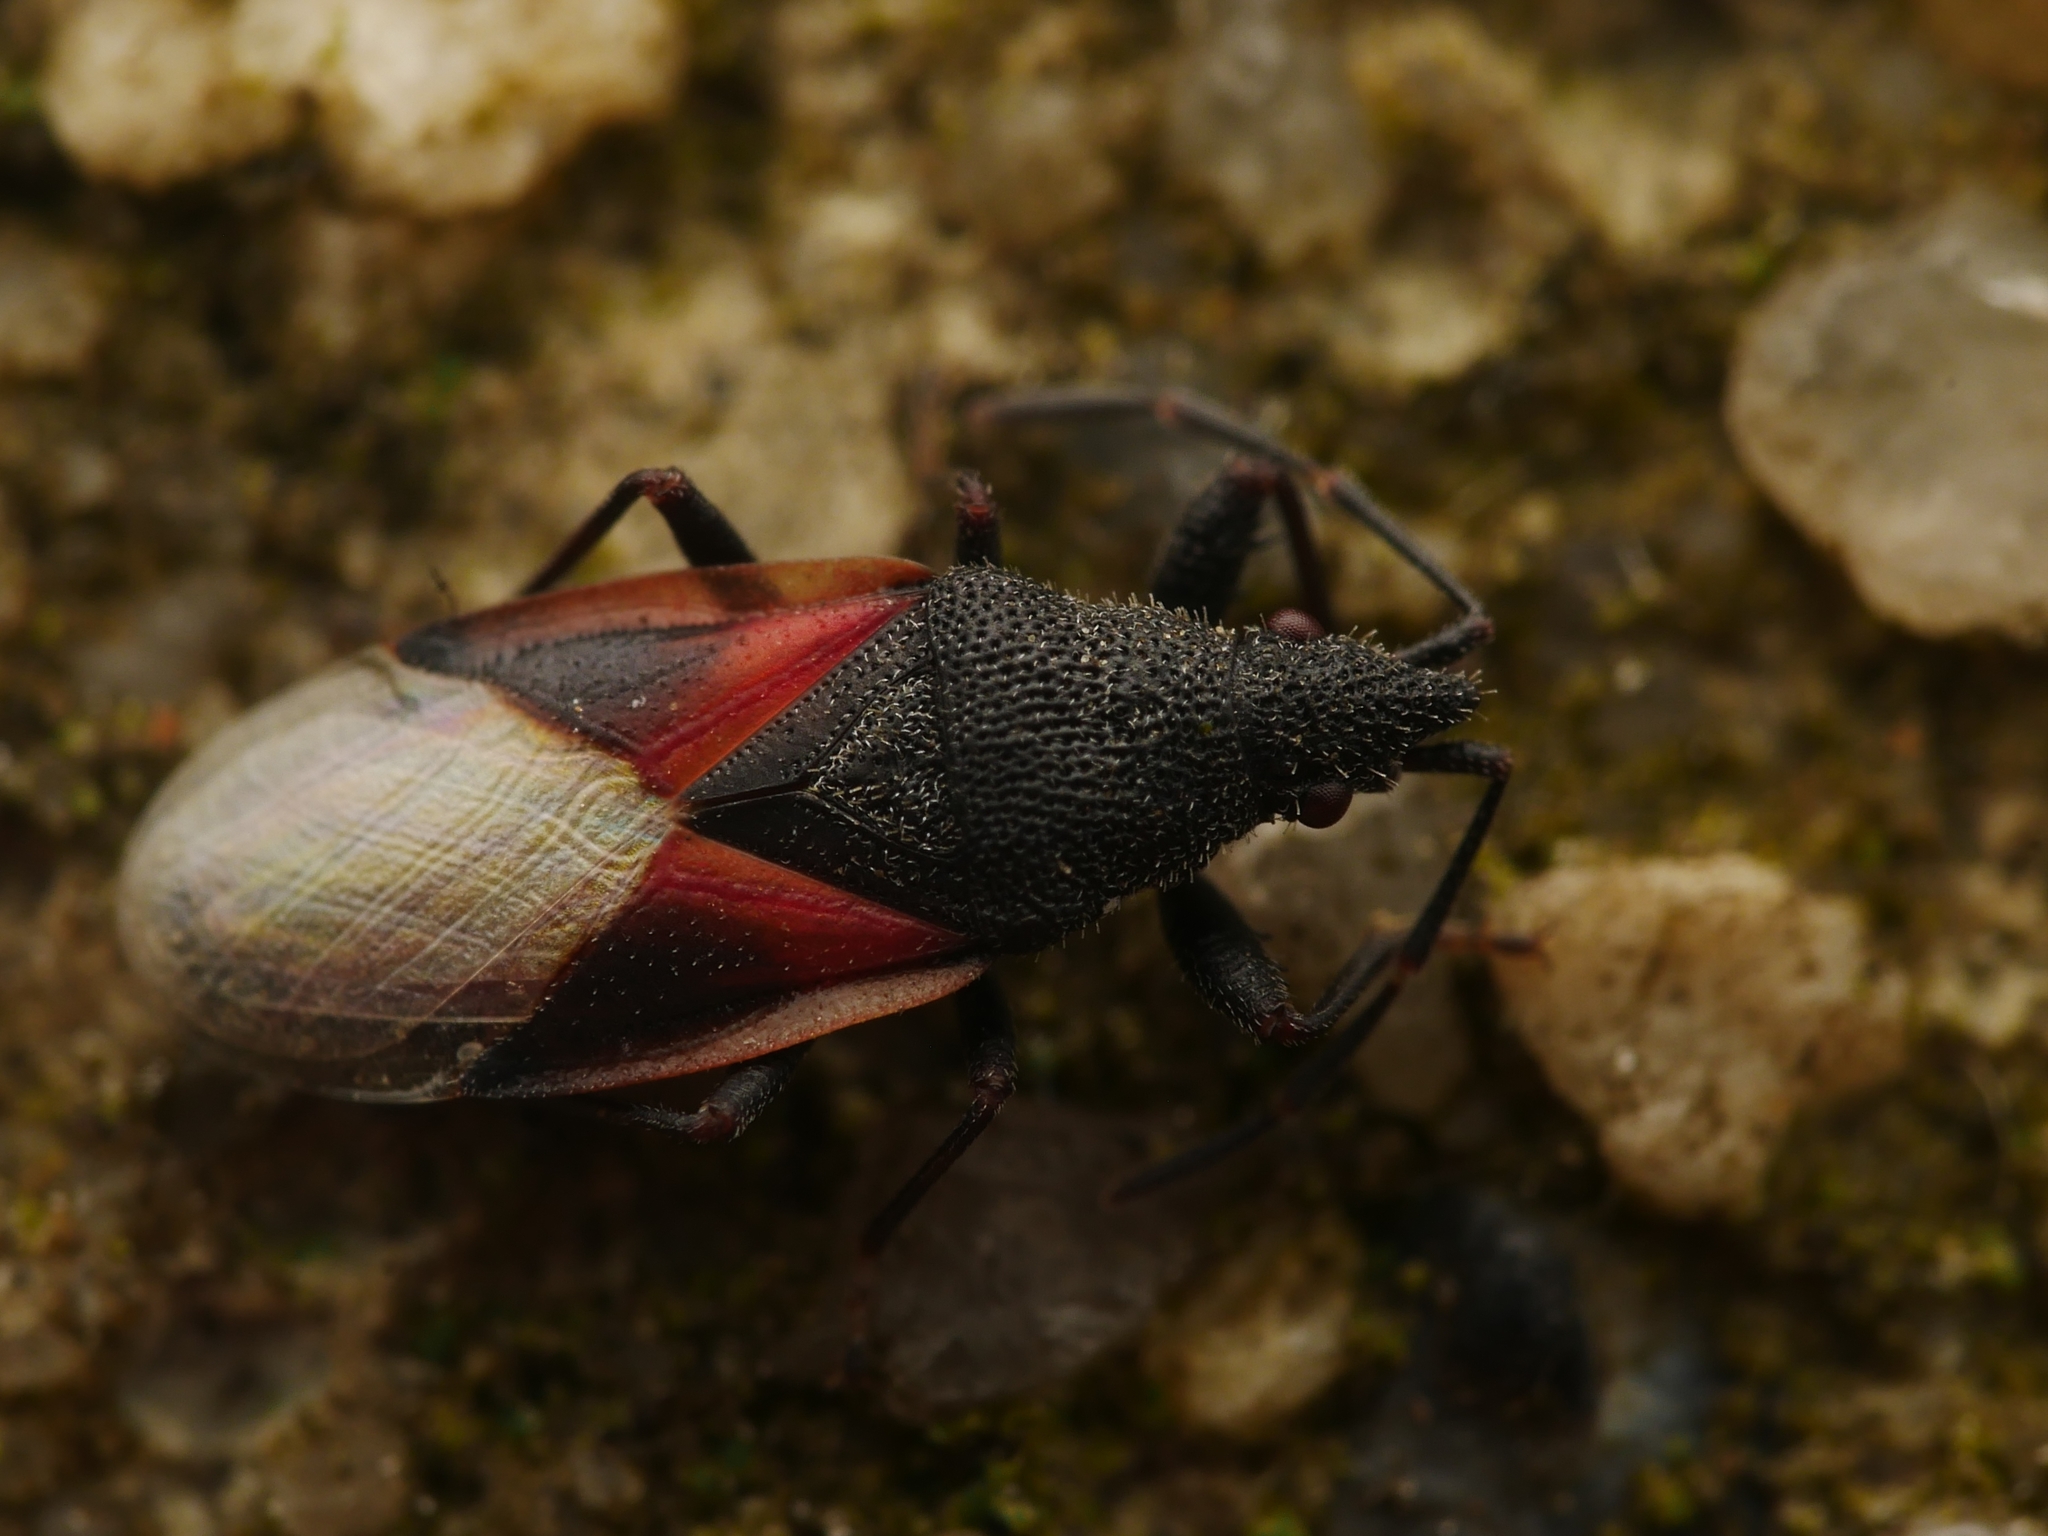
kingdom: Animalia
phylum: Arthropoda
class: Insecta
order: Hemiptera
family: Oxycarenidae
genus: Oxycarenus
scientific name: Oxycarenus lavaterae
